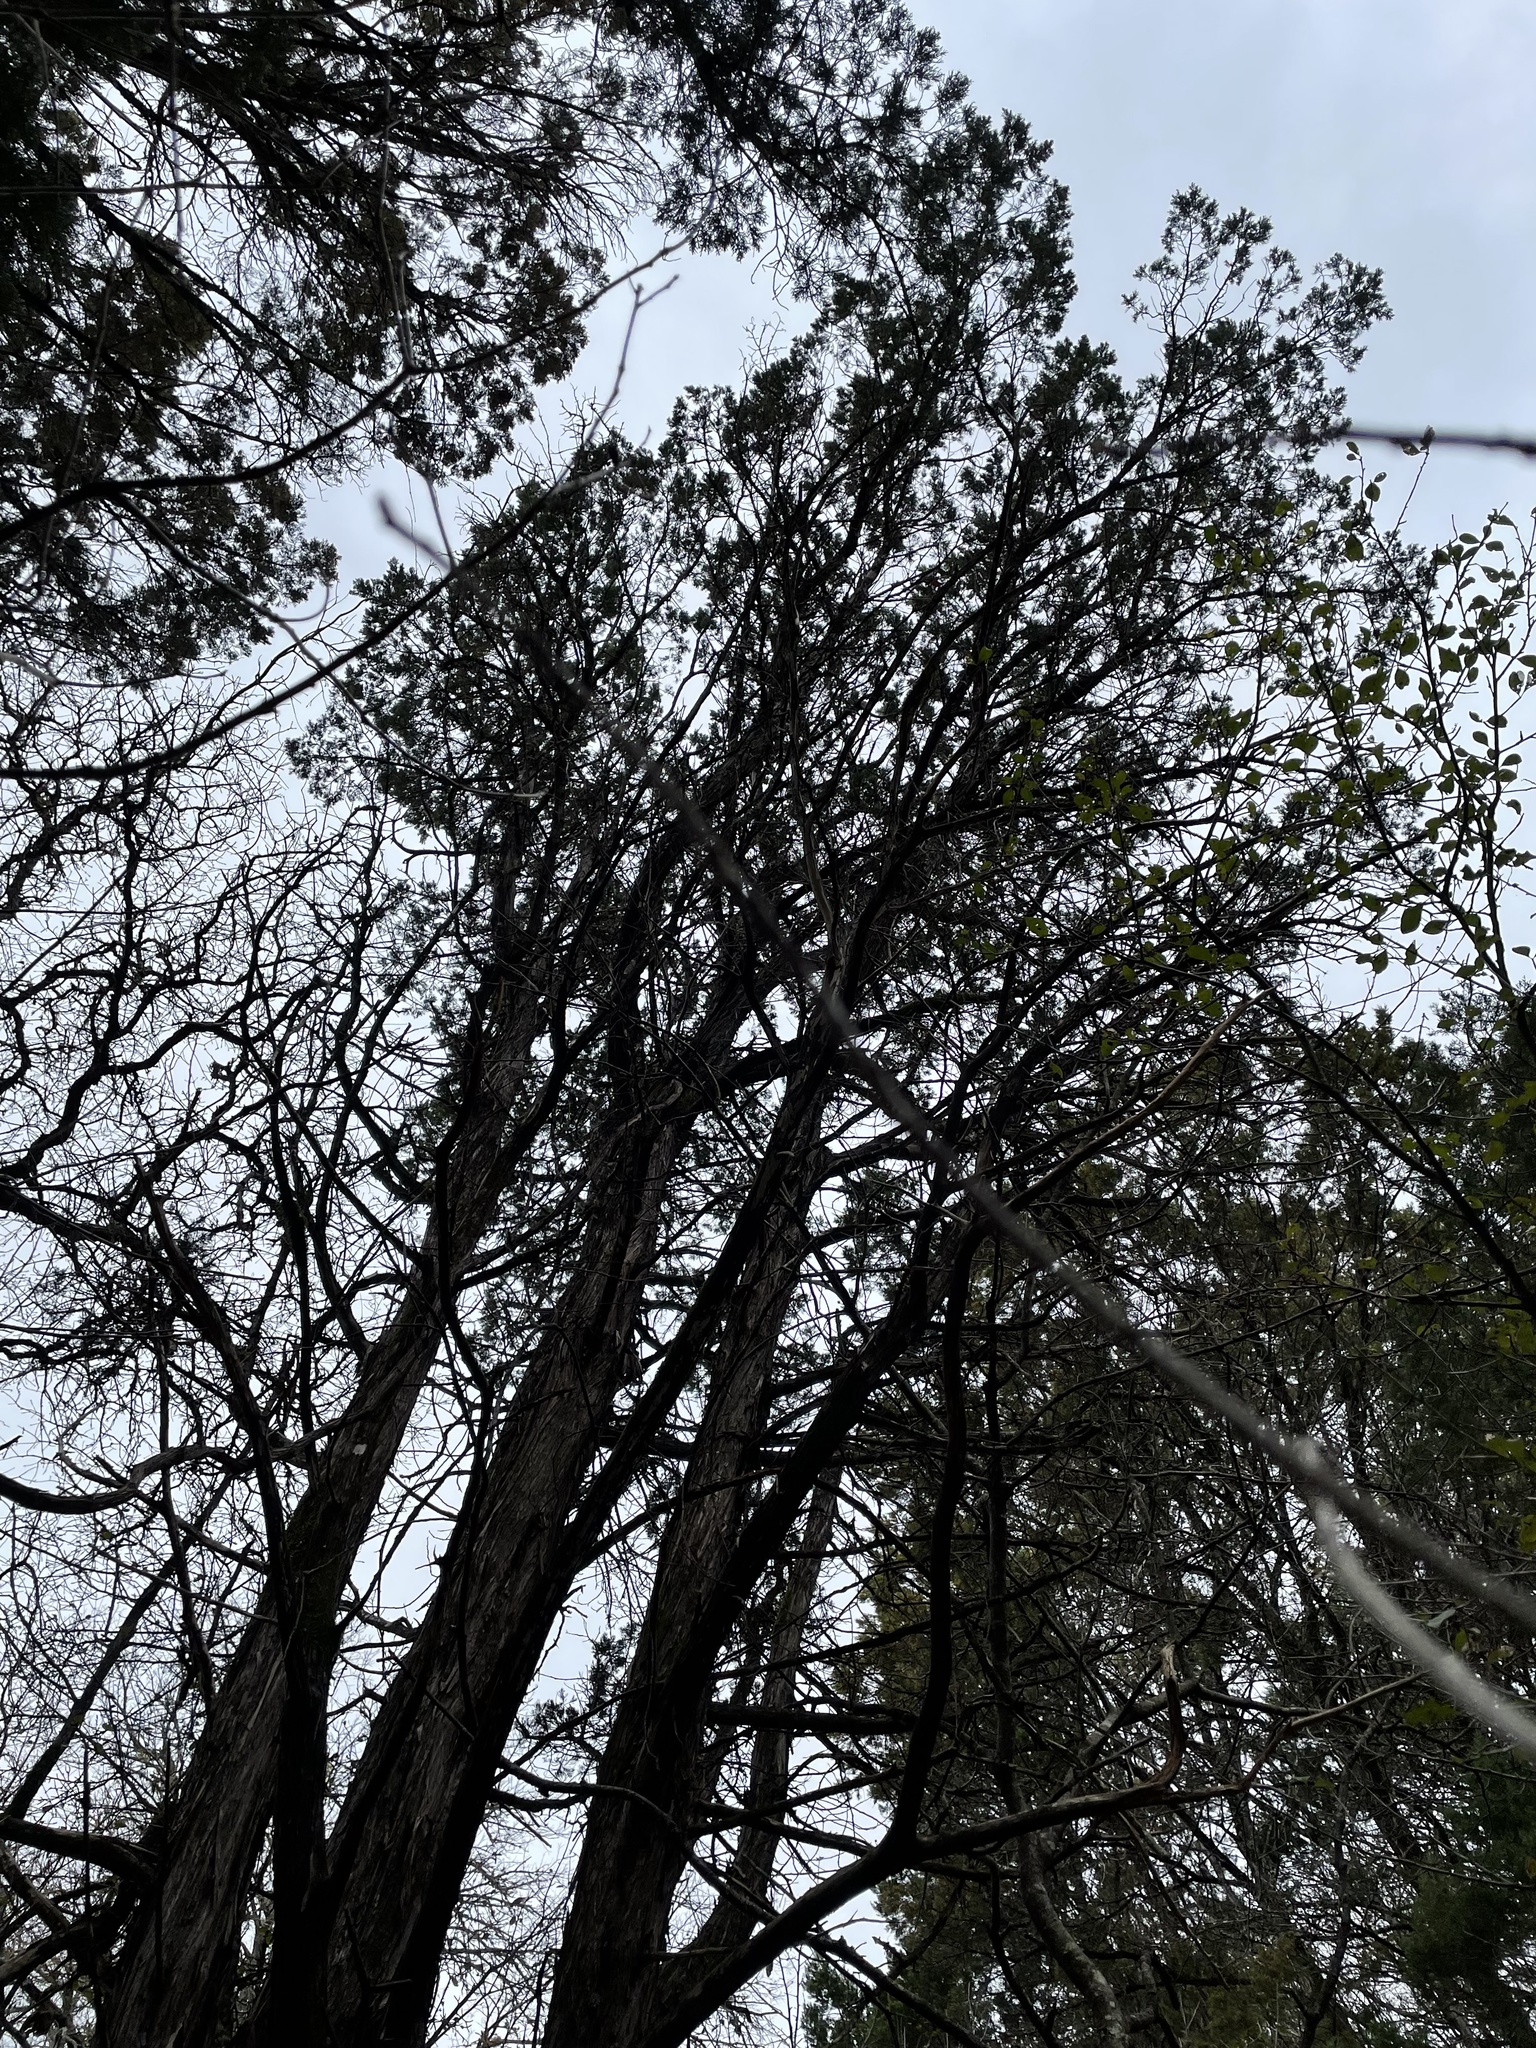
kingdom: Plantae
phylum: Tracheophyta
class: Pinopsida
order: Pinales
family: Cupressaceae
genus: Juniperus
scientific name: Juniperus ashei
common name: Mexican juniper
